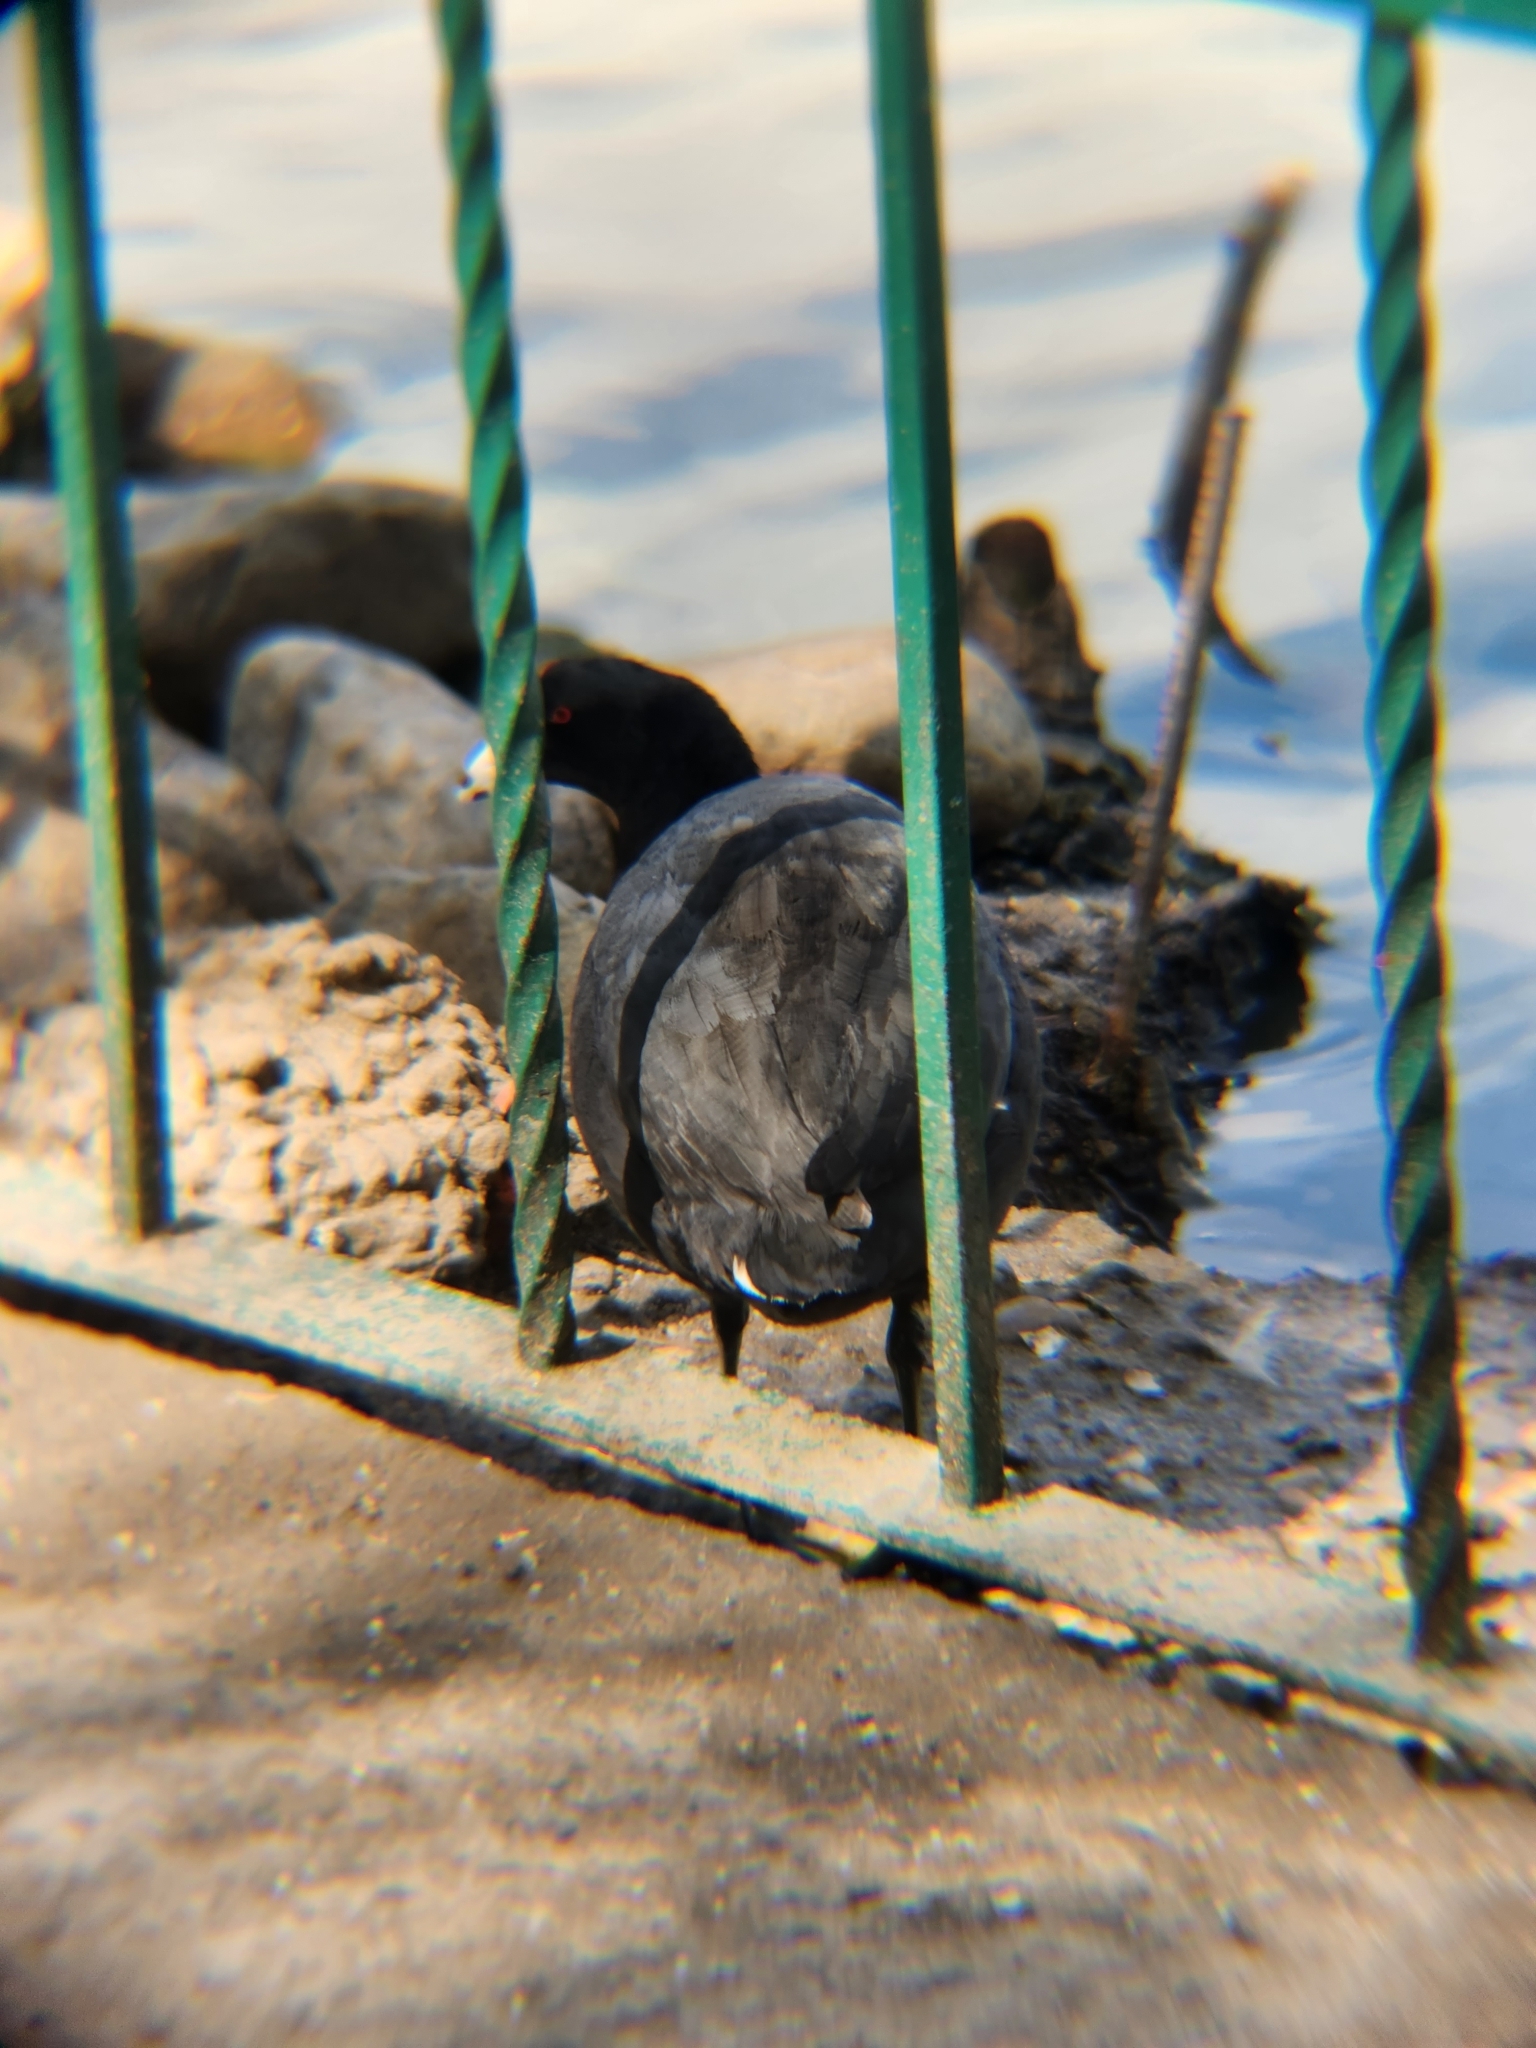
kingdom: Animalia
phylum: Chordata
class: Aves
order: Gruiformes
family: Rallidae
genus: Fulica
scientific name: Fulica americana
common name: American coot
